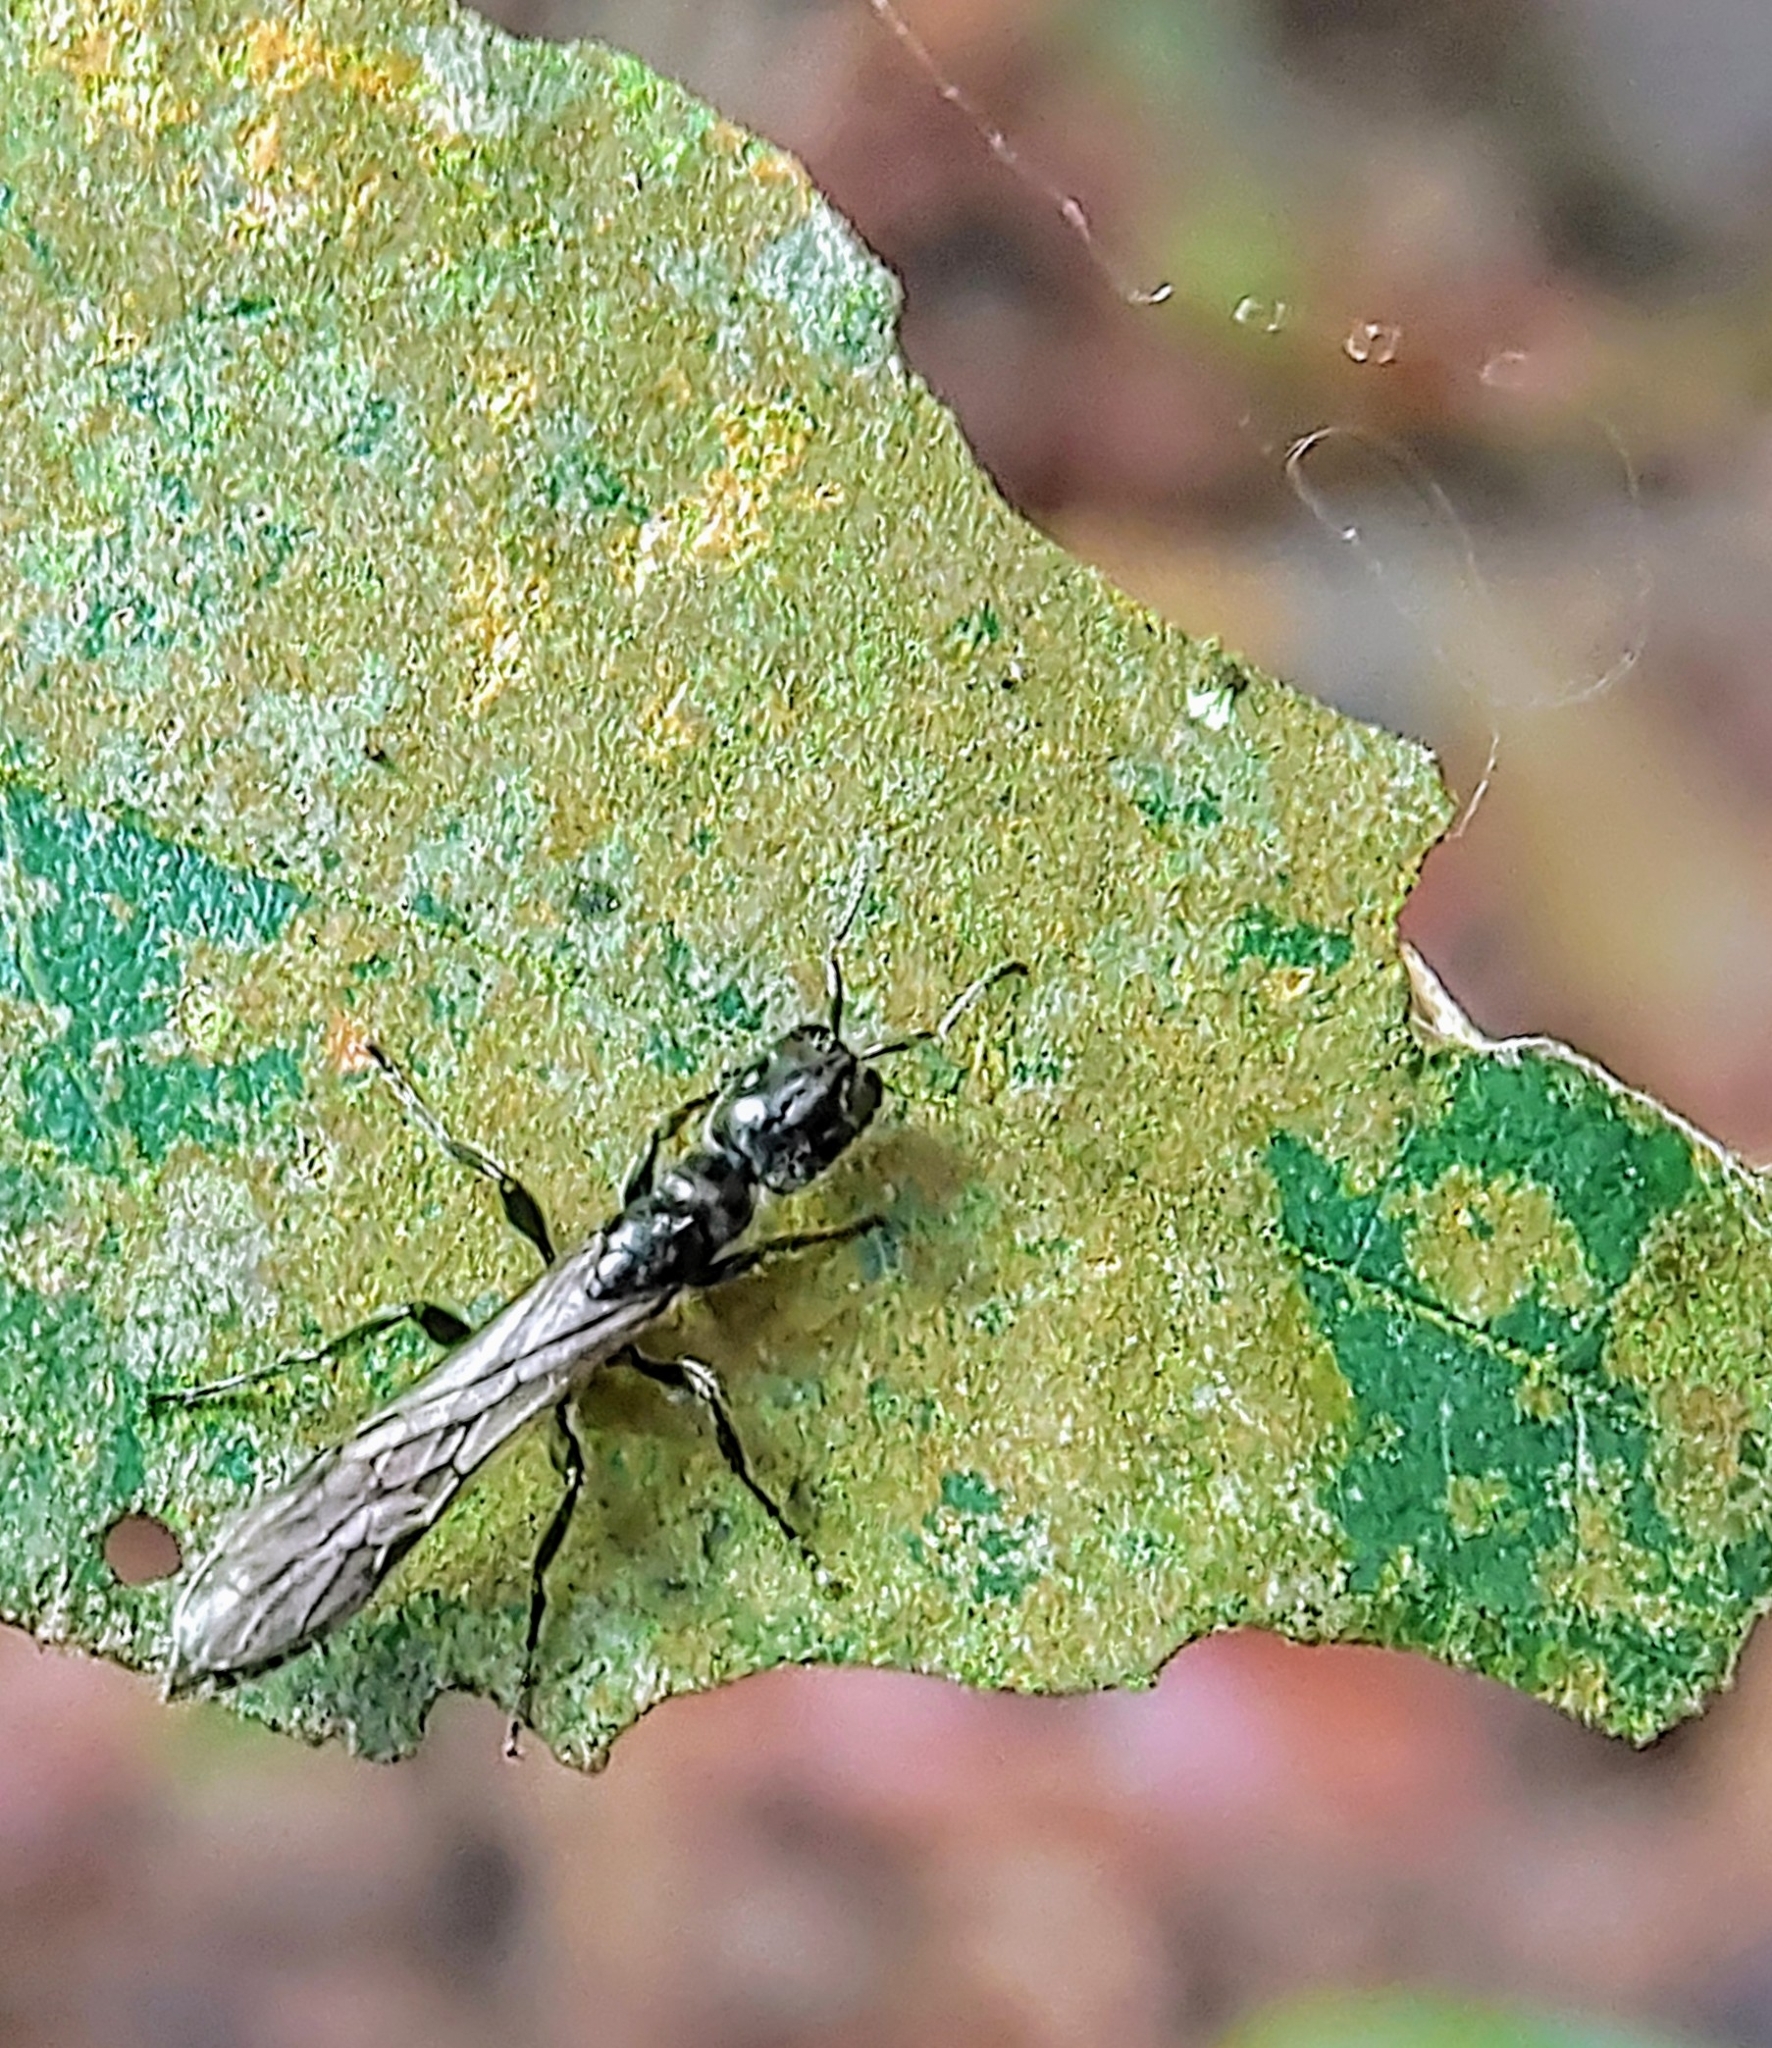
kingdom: Animalia
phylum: Arthropoda
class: Insecta
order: Hymenoptera
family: Formicidae
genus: Tetraponera
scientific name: Tetraponera nigra
